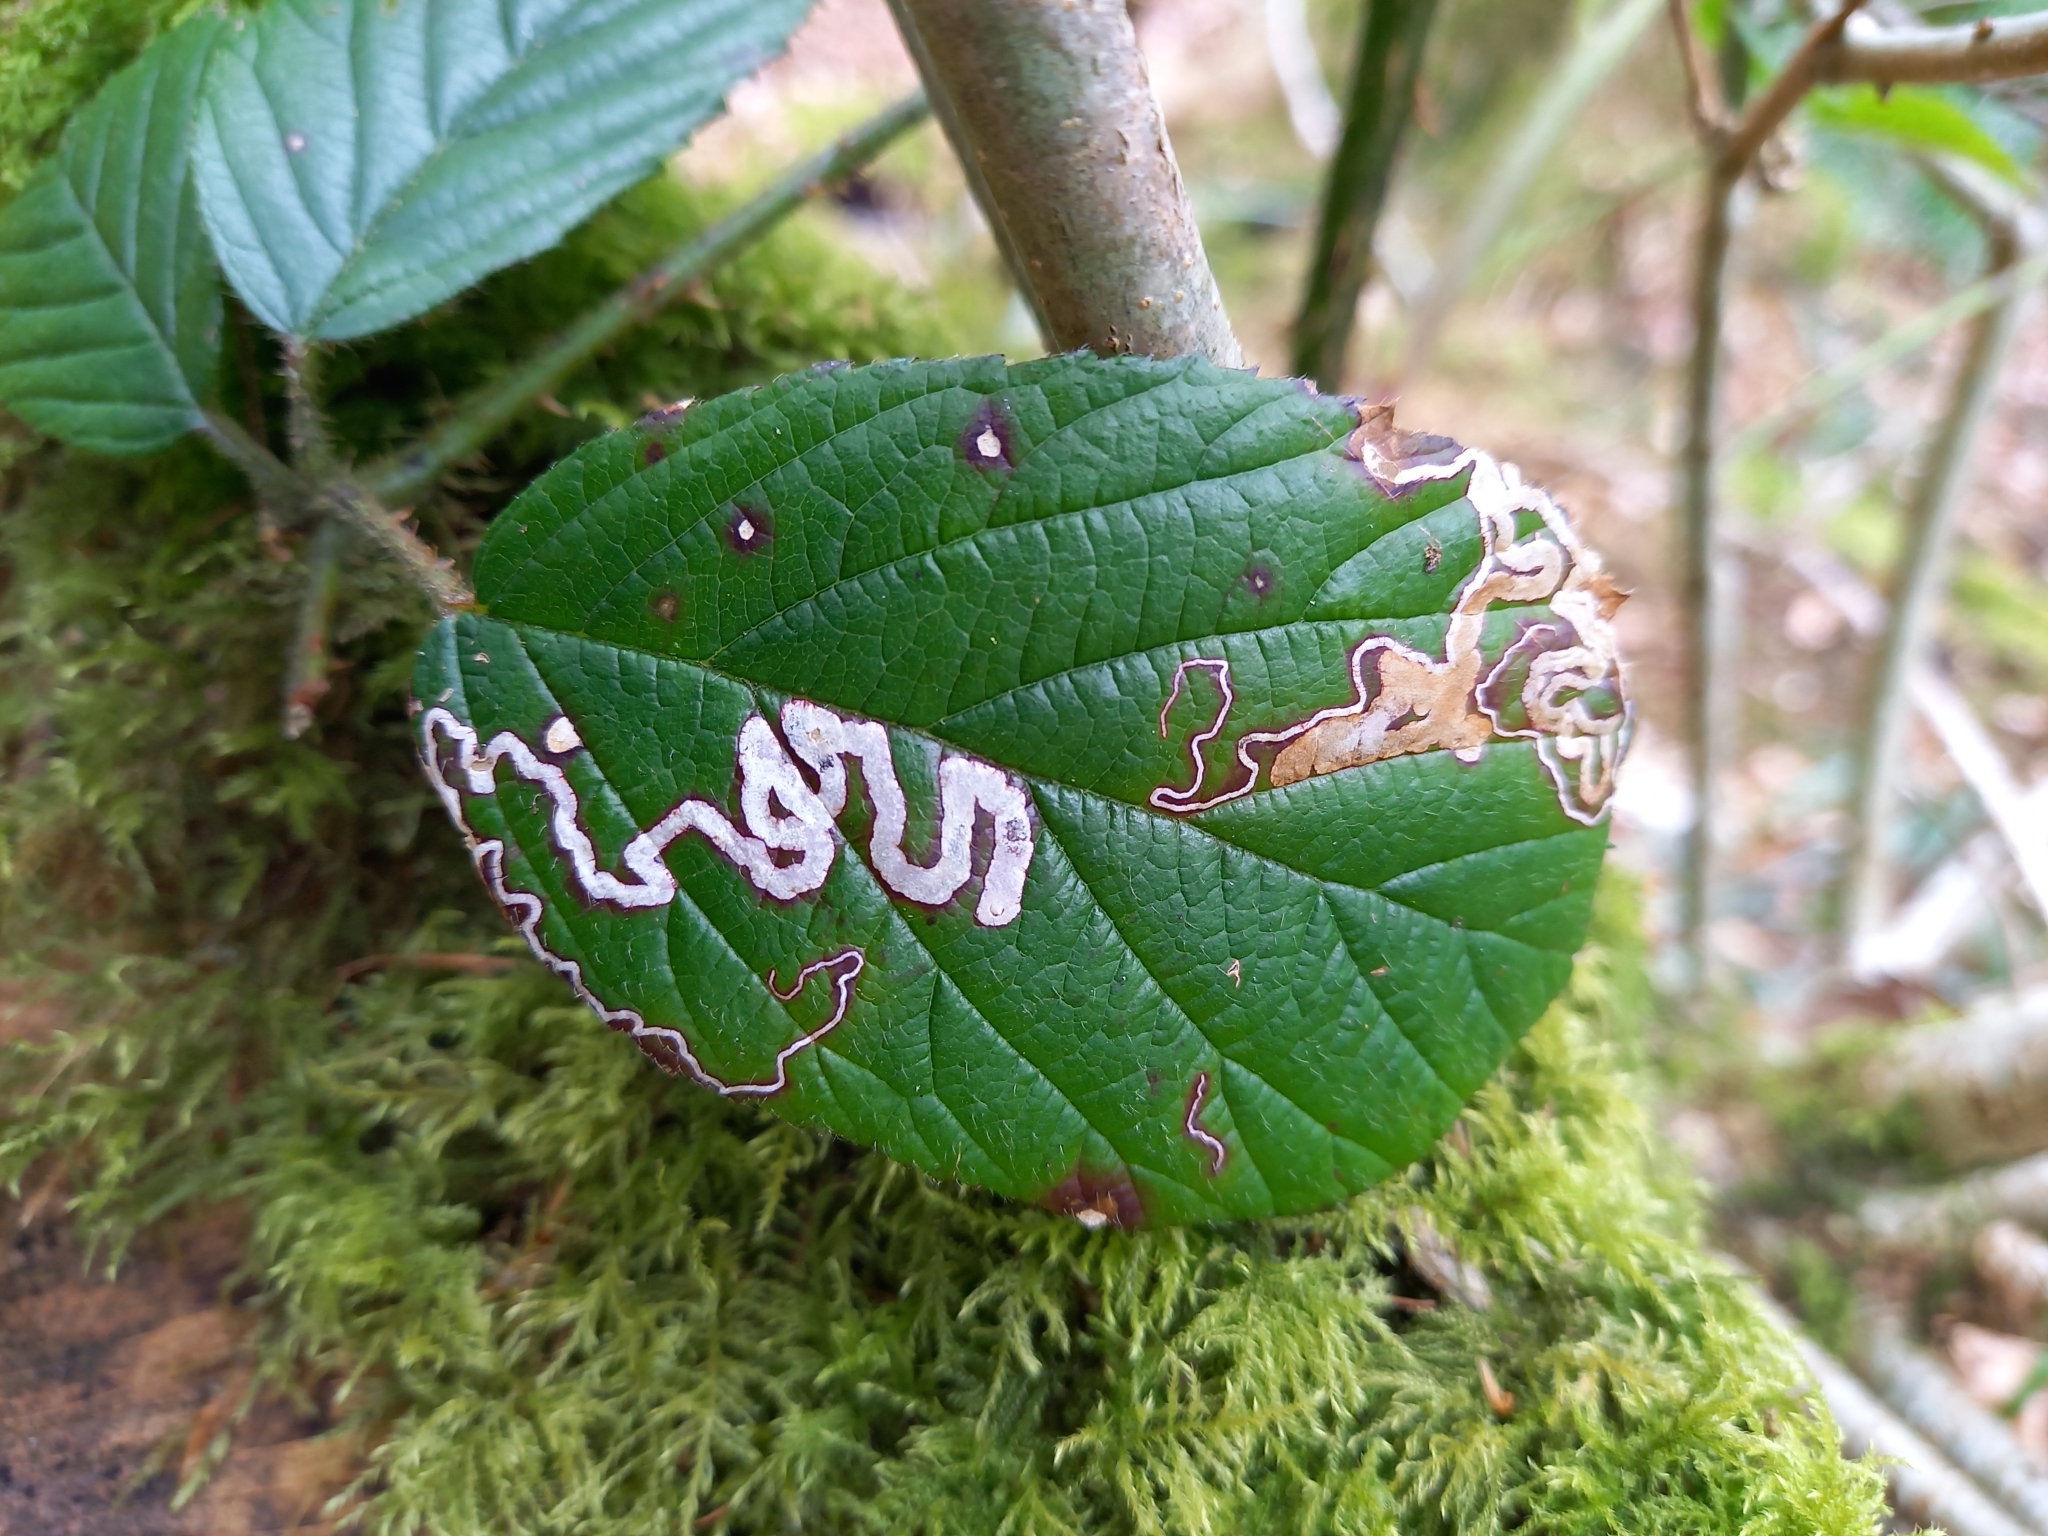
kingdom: Animalia
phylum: Arthropoda
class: Insecta
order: Lepidoptera
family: Nepticulidae
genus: Stigmella
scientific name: Stigmella aurella
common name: Golden pigmy
